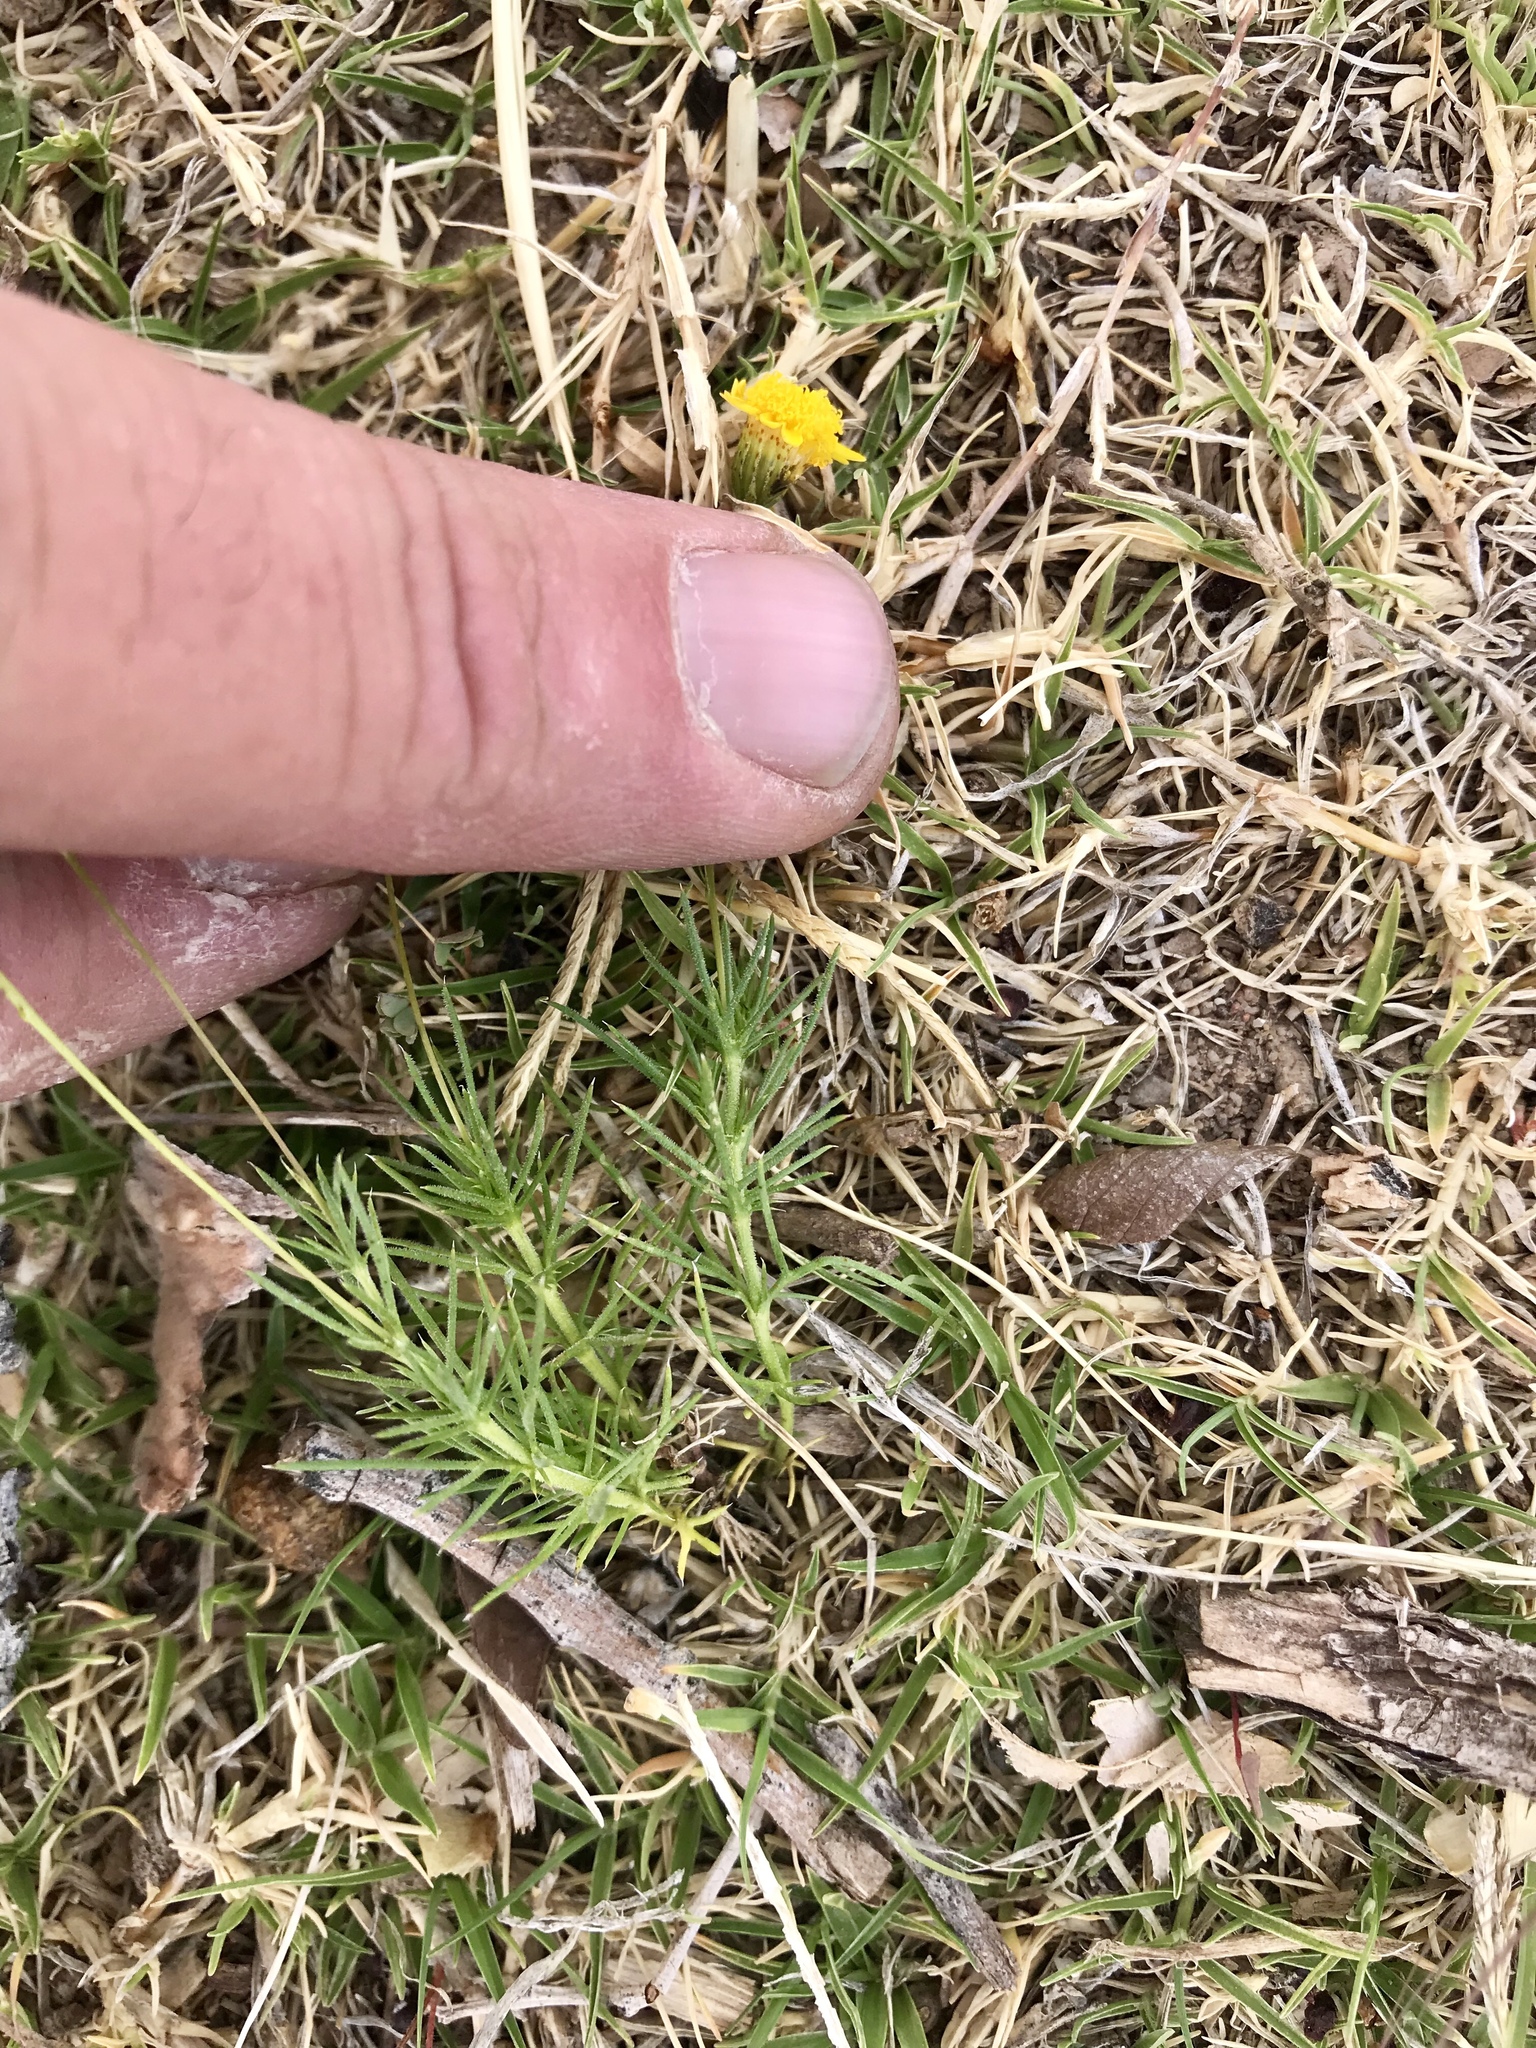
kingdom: Plantae
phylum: Tracheophyta
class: Magnoliopsida
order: Asterales
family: Asteraceae
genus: Thymophylla
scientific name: Thymophylla pentachaeta
